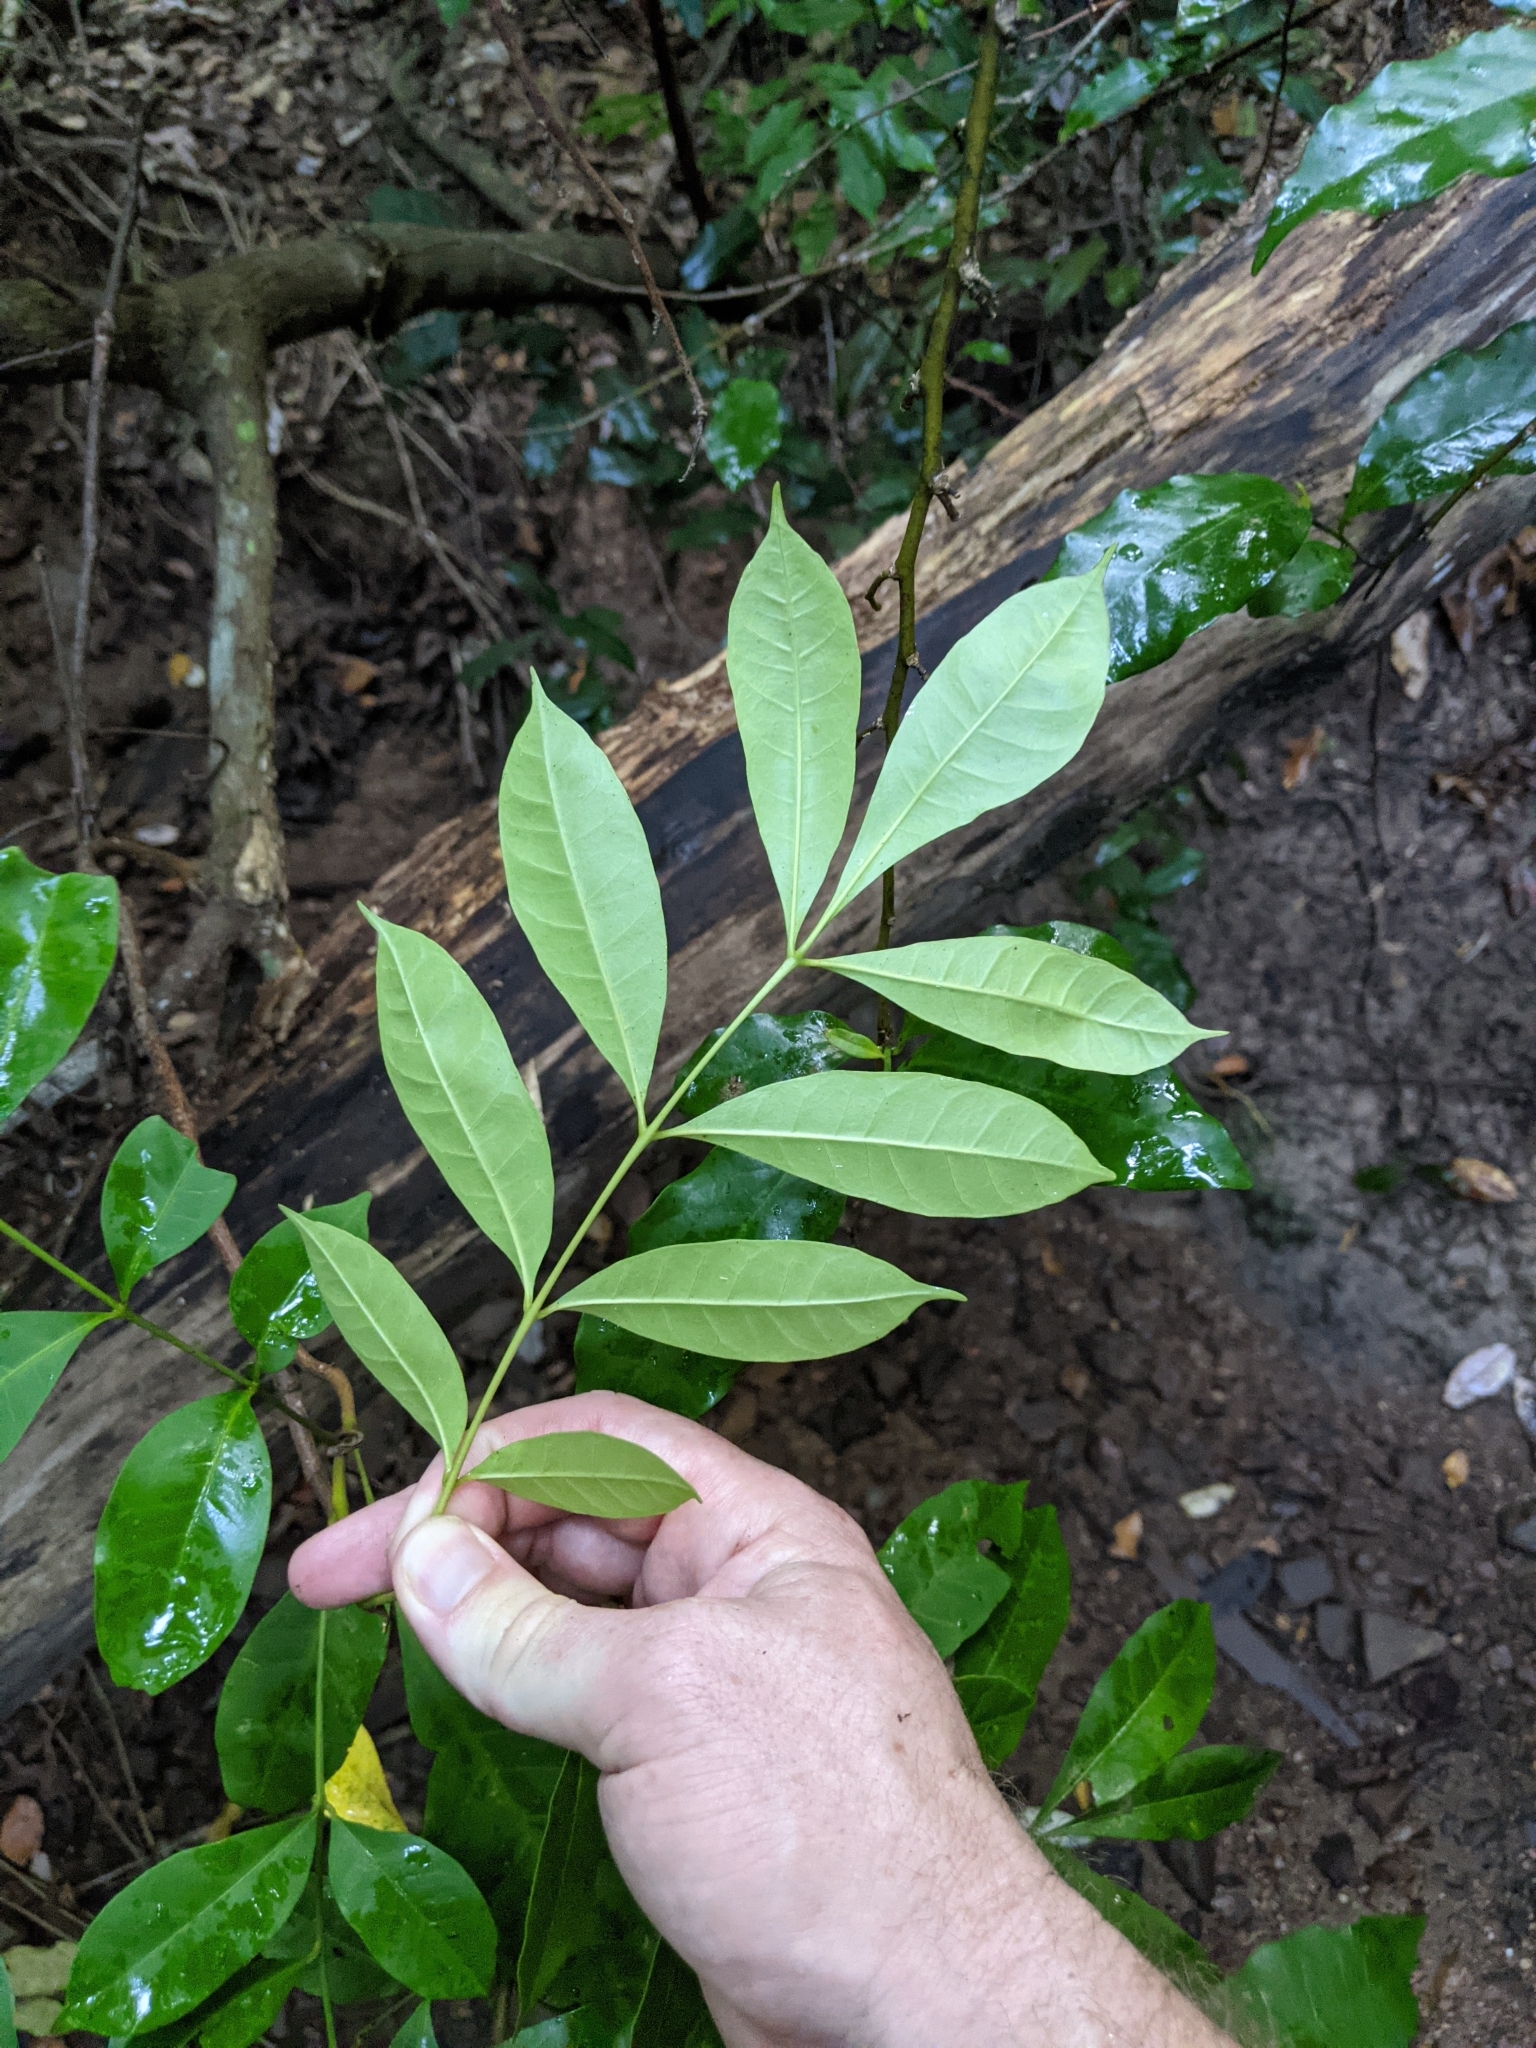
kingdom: Plantae
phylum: Tracheophyta
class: Magnoliopsida
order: Sapindales
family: Meliaceae
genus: Synoum
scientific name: Synoum glandulosum
